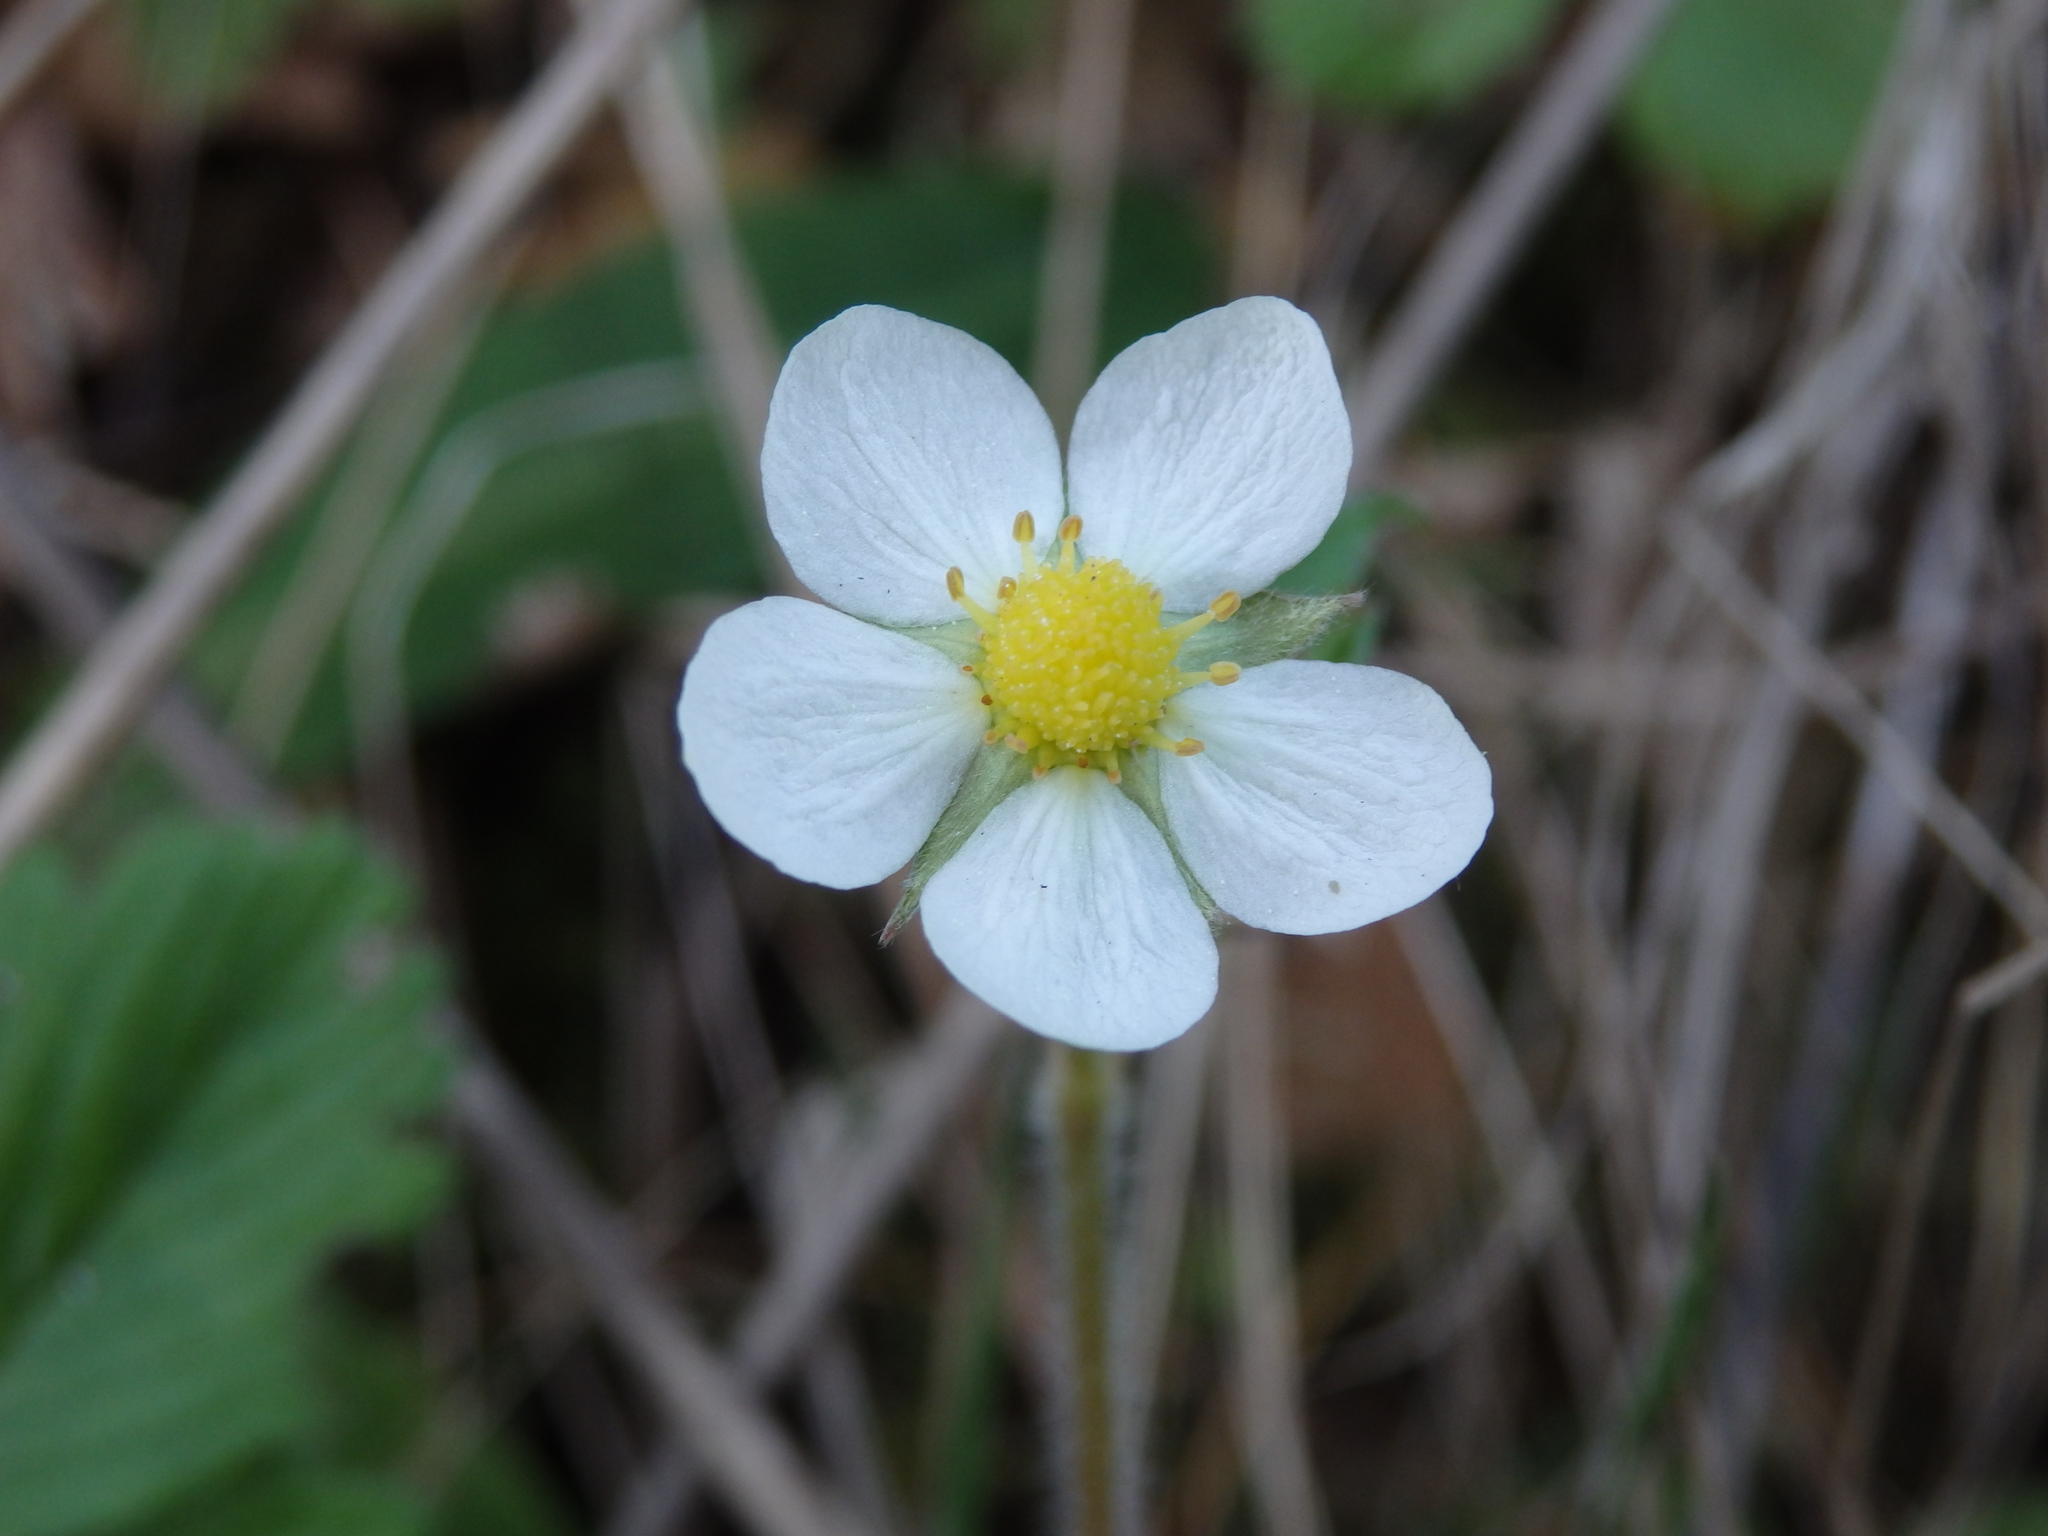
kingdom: Plantae
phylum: Tracheophyta
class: Magnoliopsida
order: Rosales
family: Rosaceae
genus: Fragaria
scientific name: Fragaria vesca
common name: Wild strawberry
